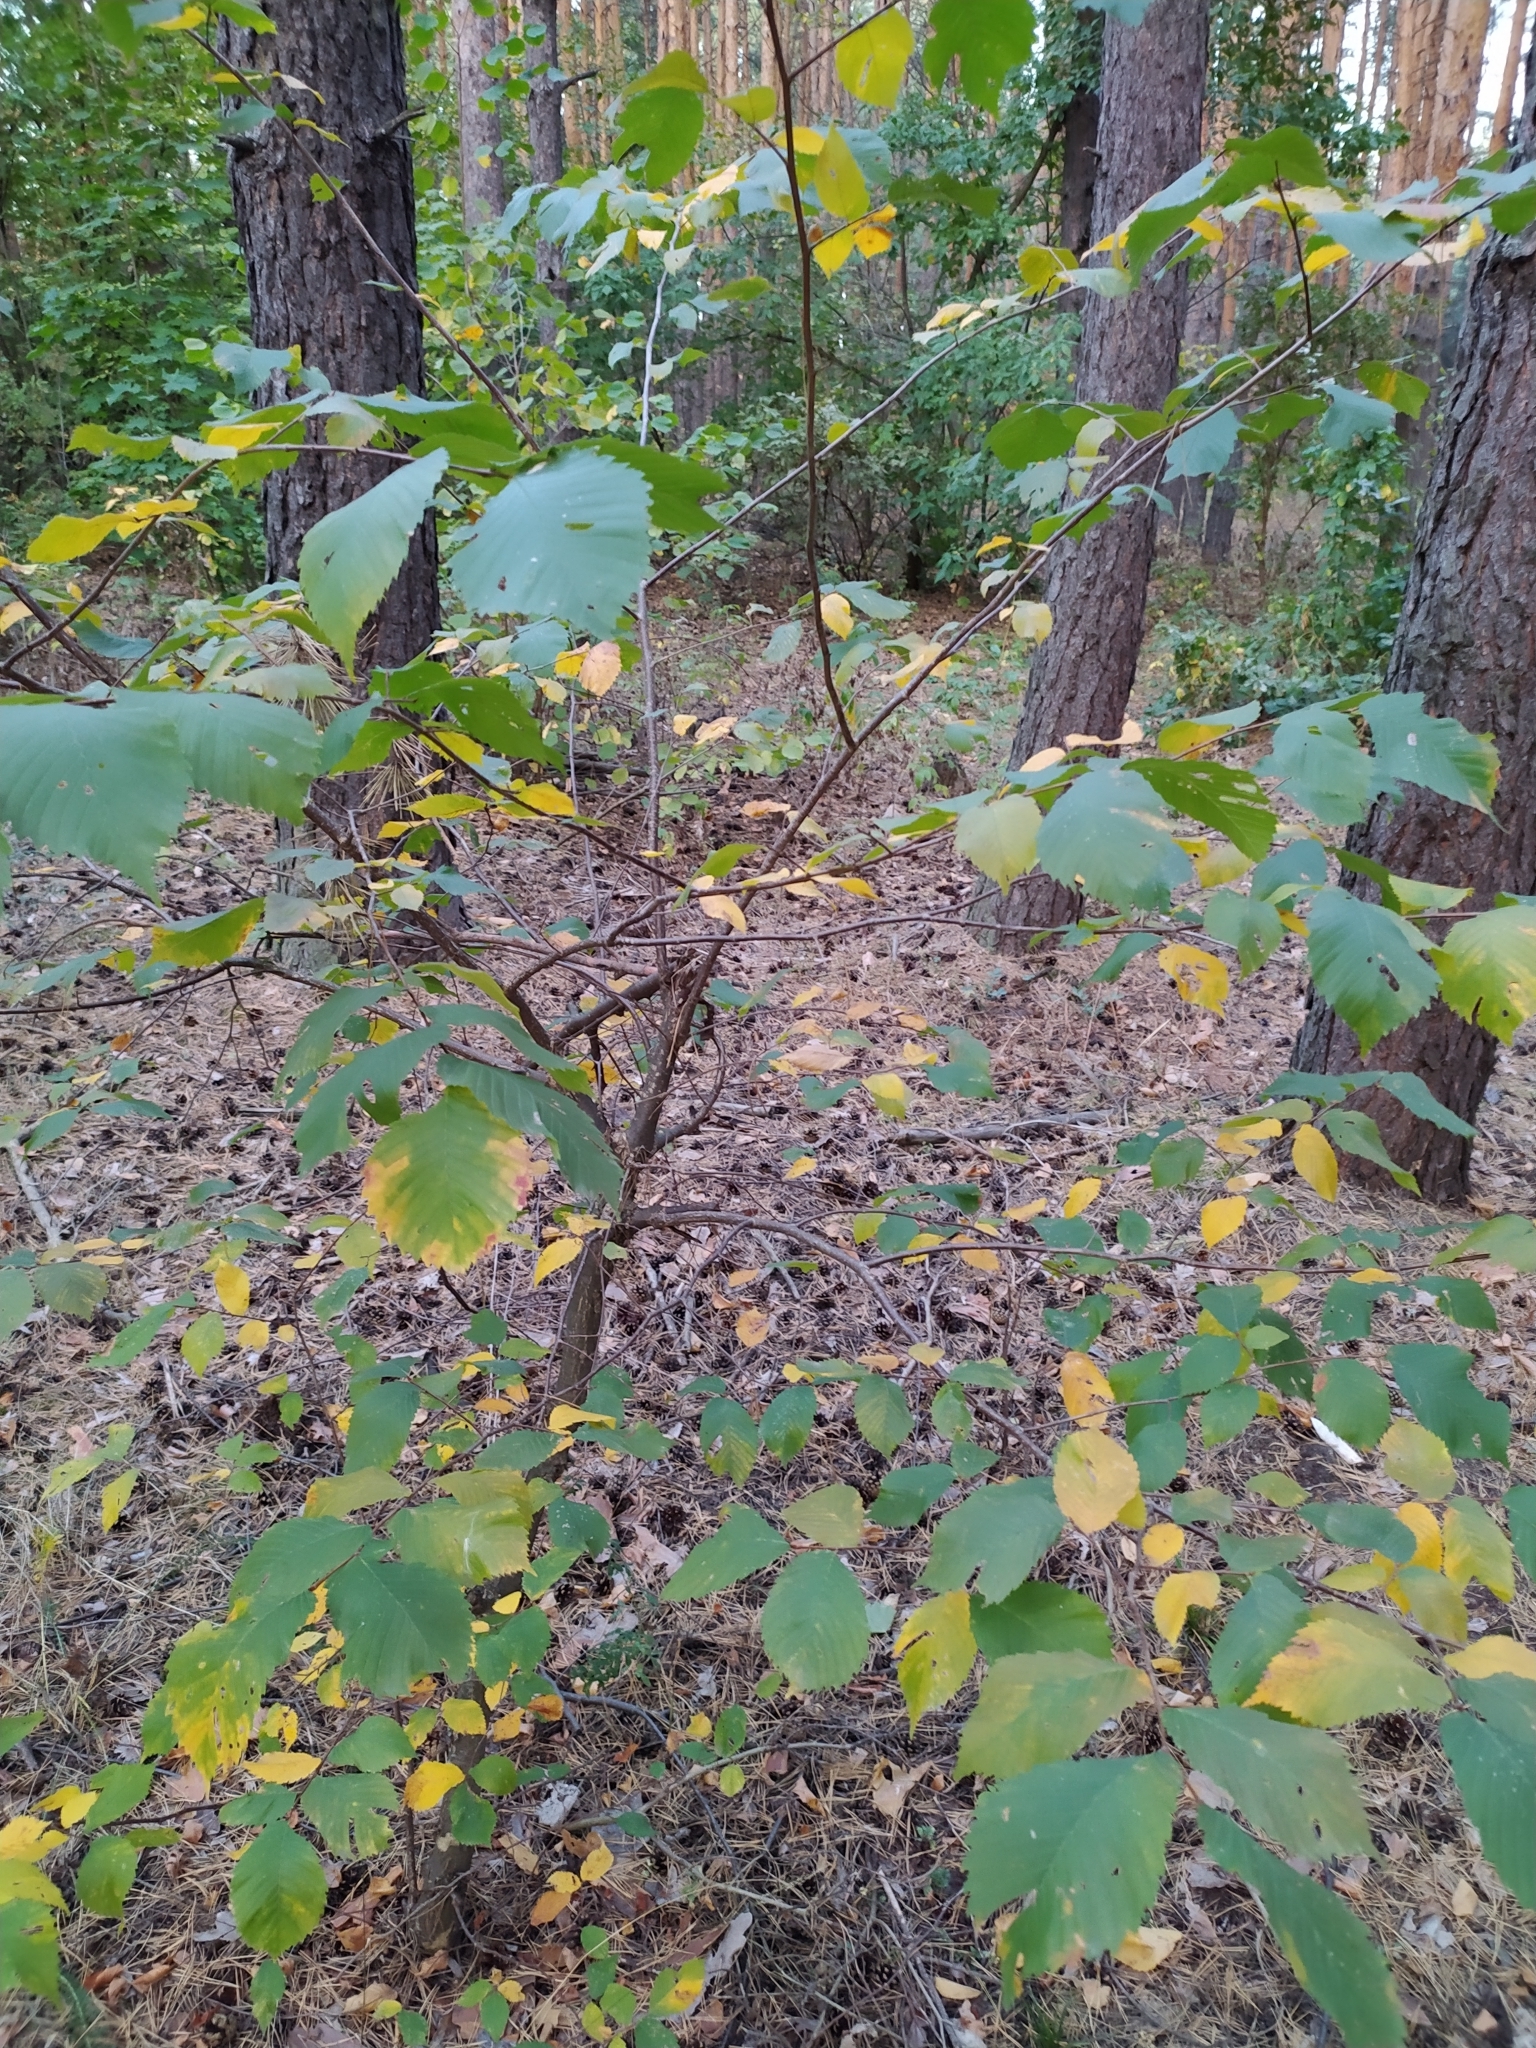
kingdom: Plantae
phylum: Tracheophyta
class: Magnoliopsida
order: Rosales
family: Ulmaceae
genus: Ulmus
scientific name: Ulmus laevis
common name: European white-elm
